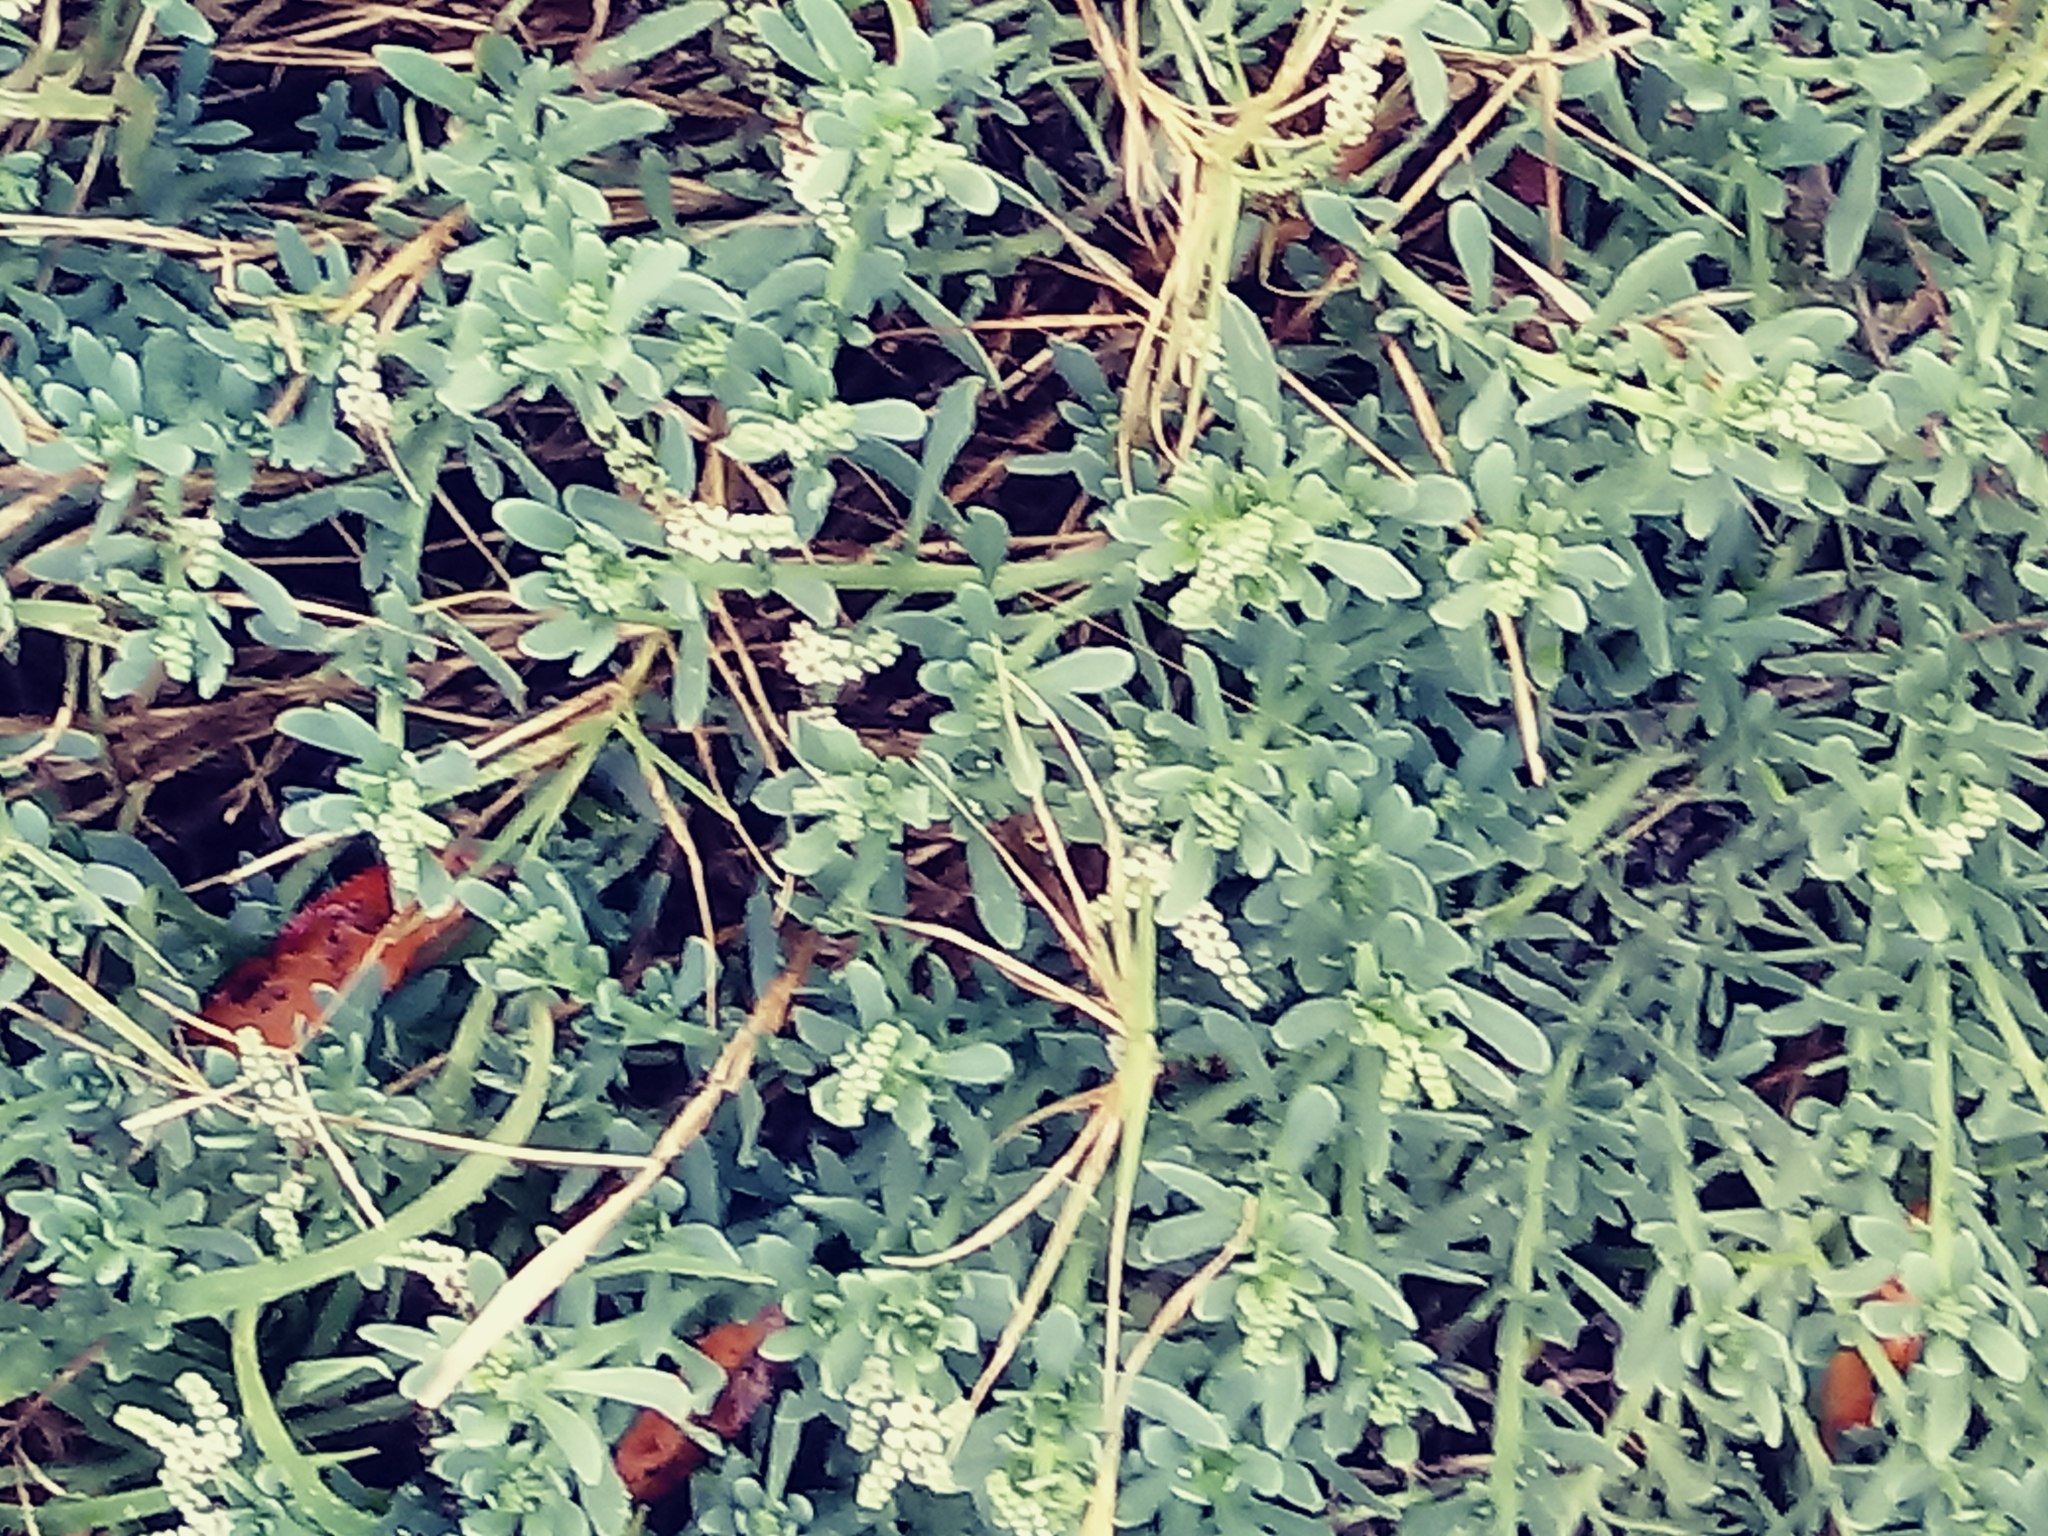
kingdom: Plantae
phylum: Tracheophyta
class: Magnoliopsida
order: Boraginales
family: Heliotropiaceae
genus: Heliotropium
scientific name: Heliotropium curassavicum
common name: Seaside heliotrope
